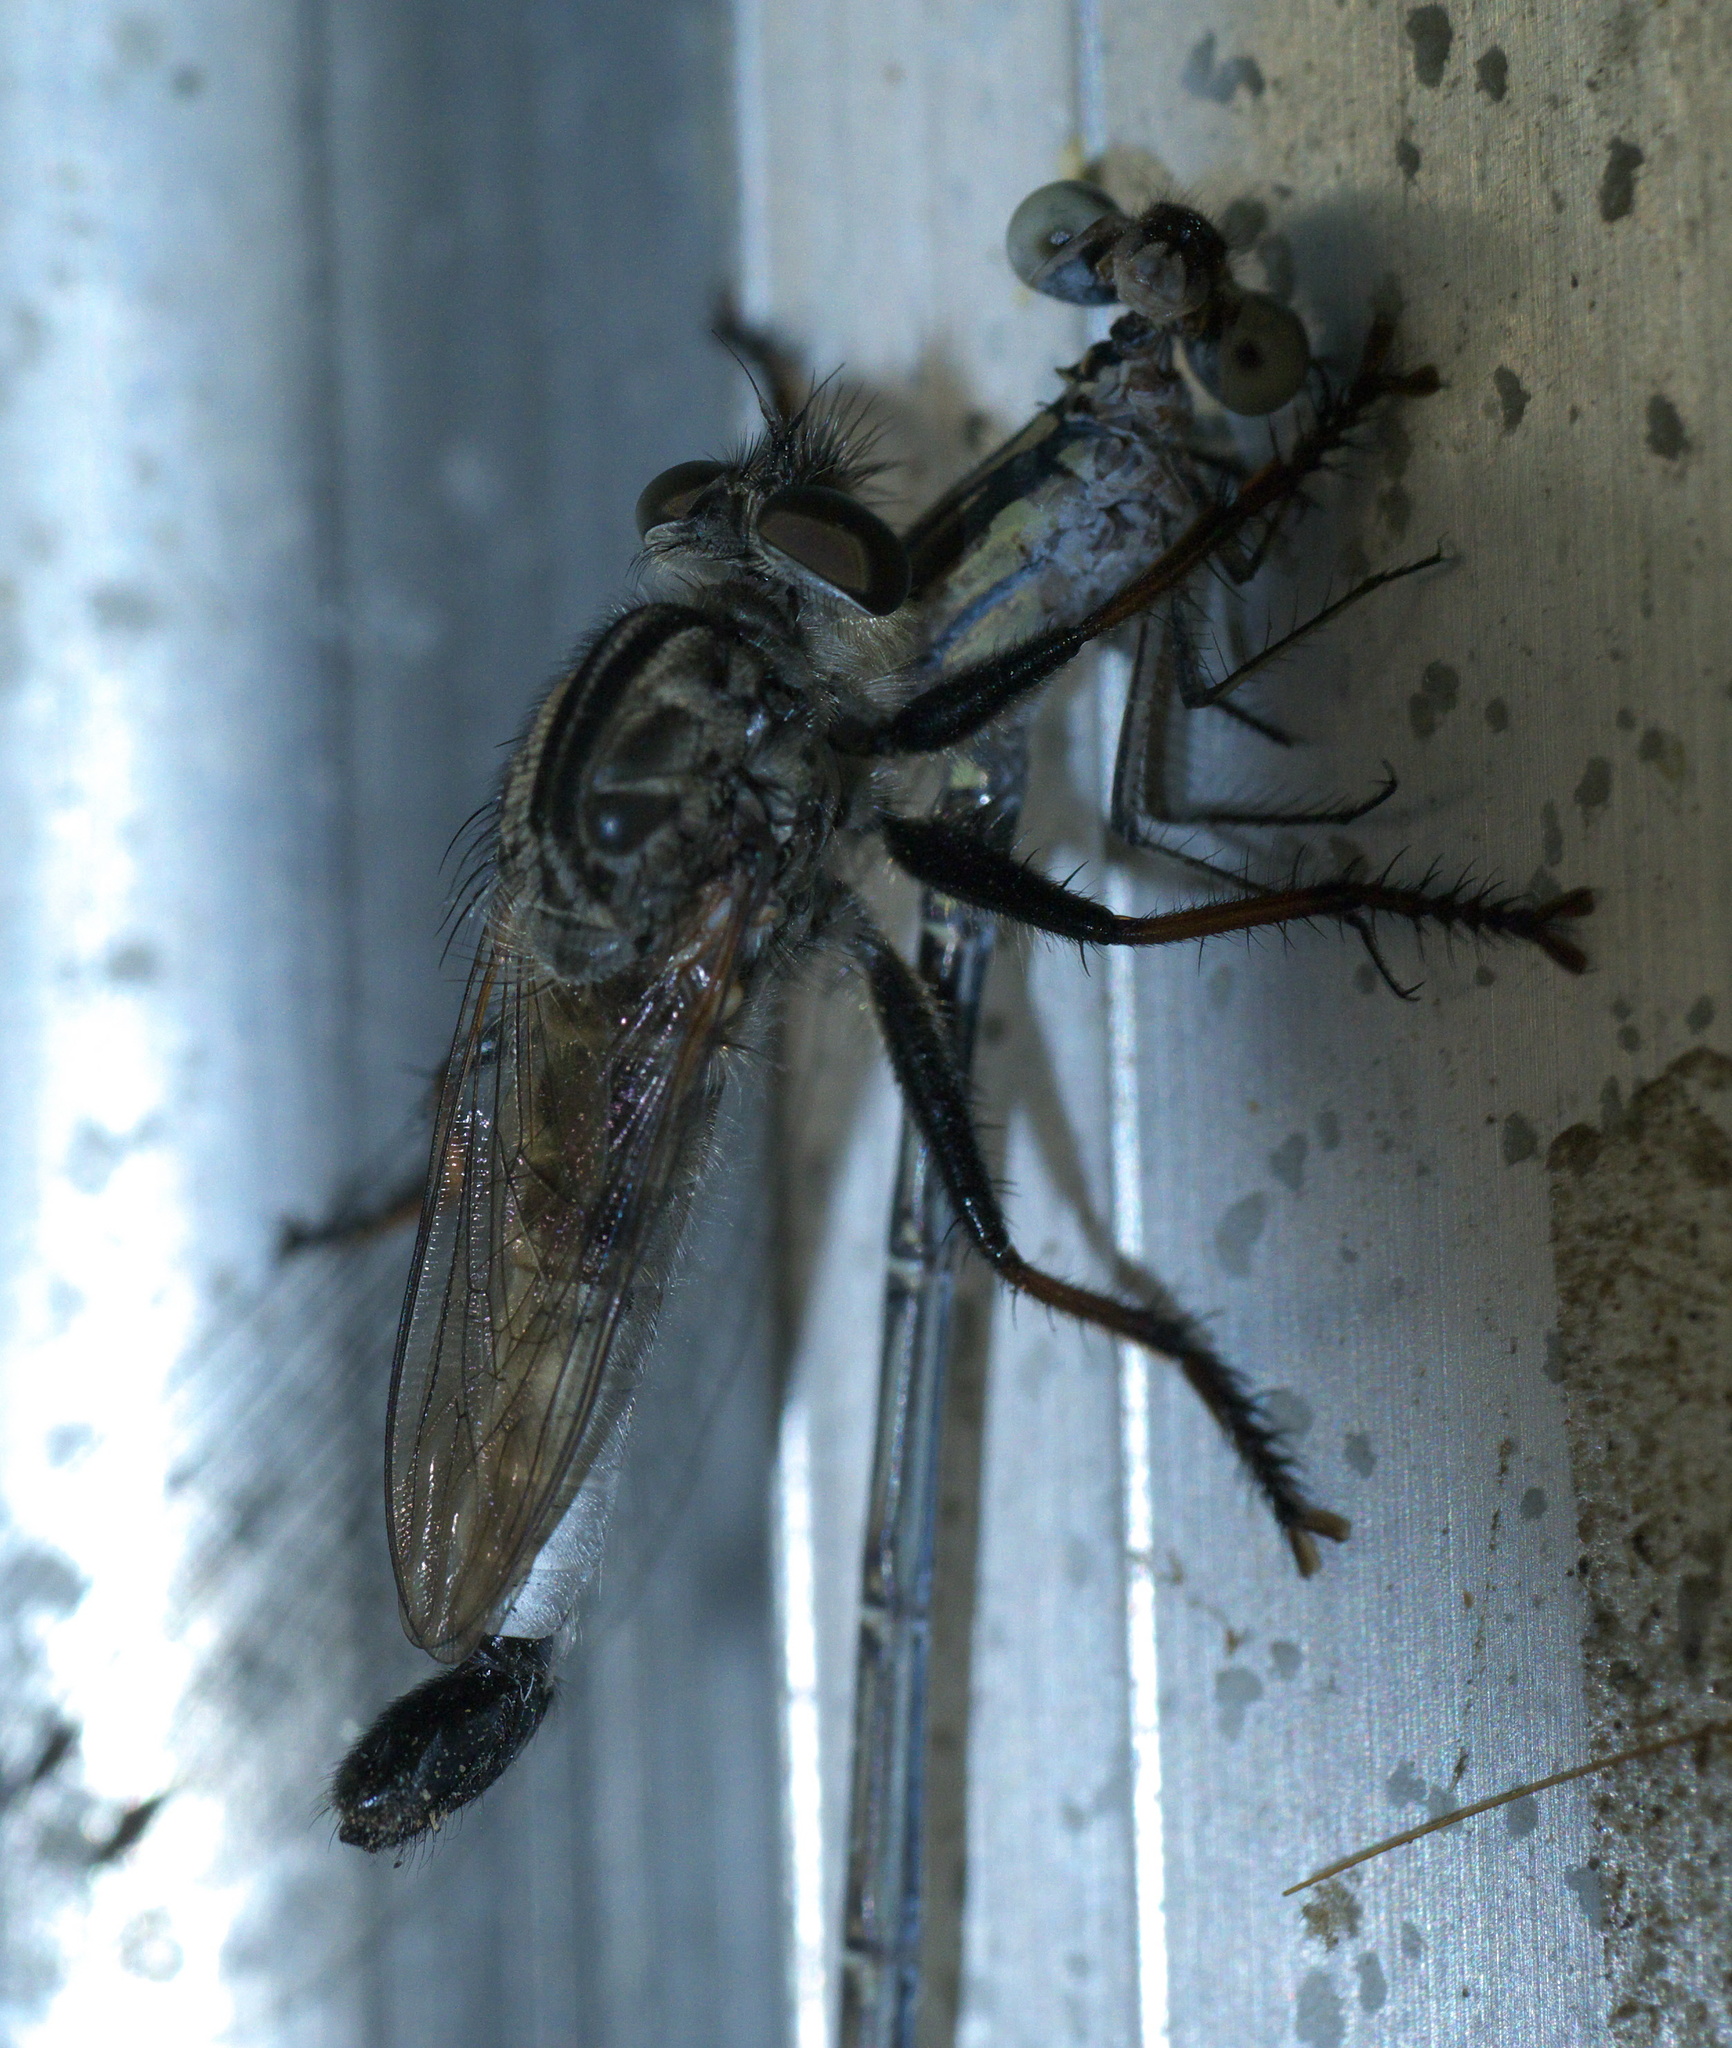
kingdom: Animalia
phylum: Arthropoda
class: Insecta
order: Diptera
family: Asilidae
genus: Efferia
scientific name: Efferia aestuans
